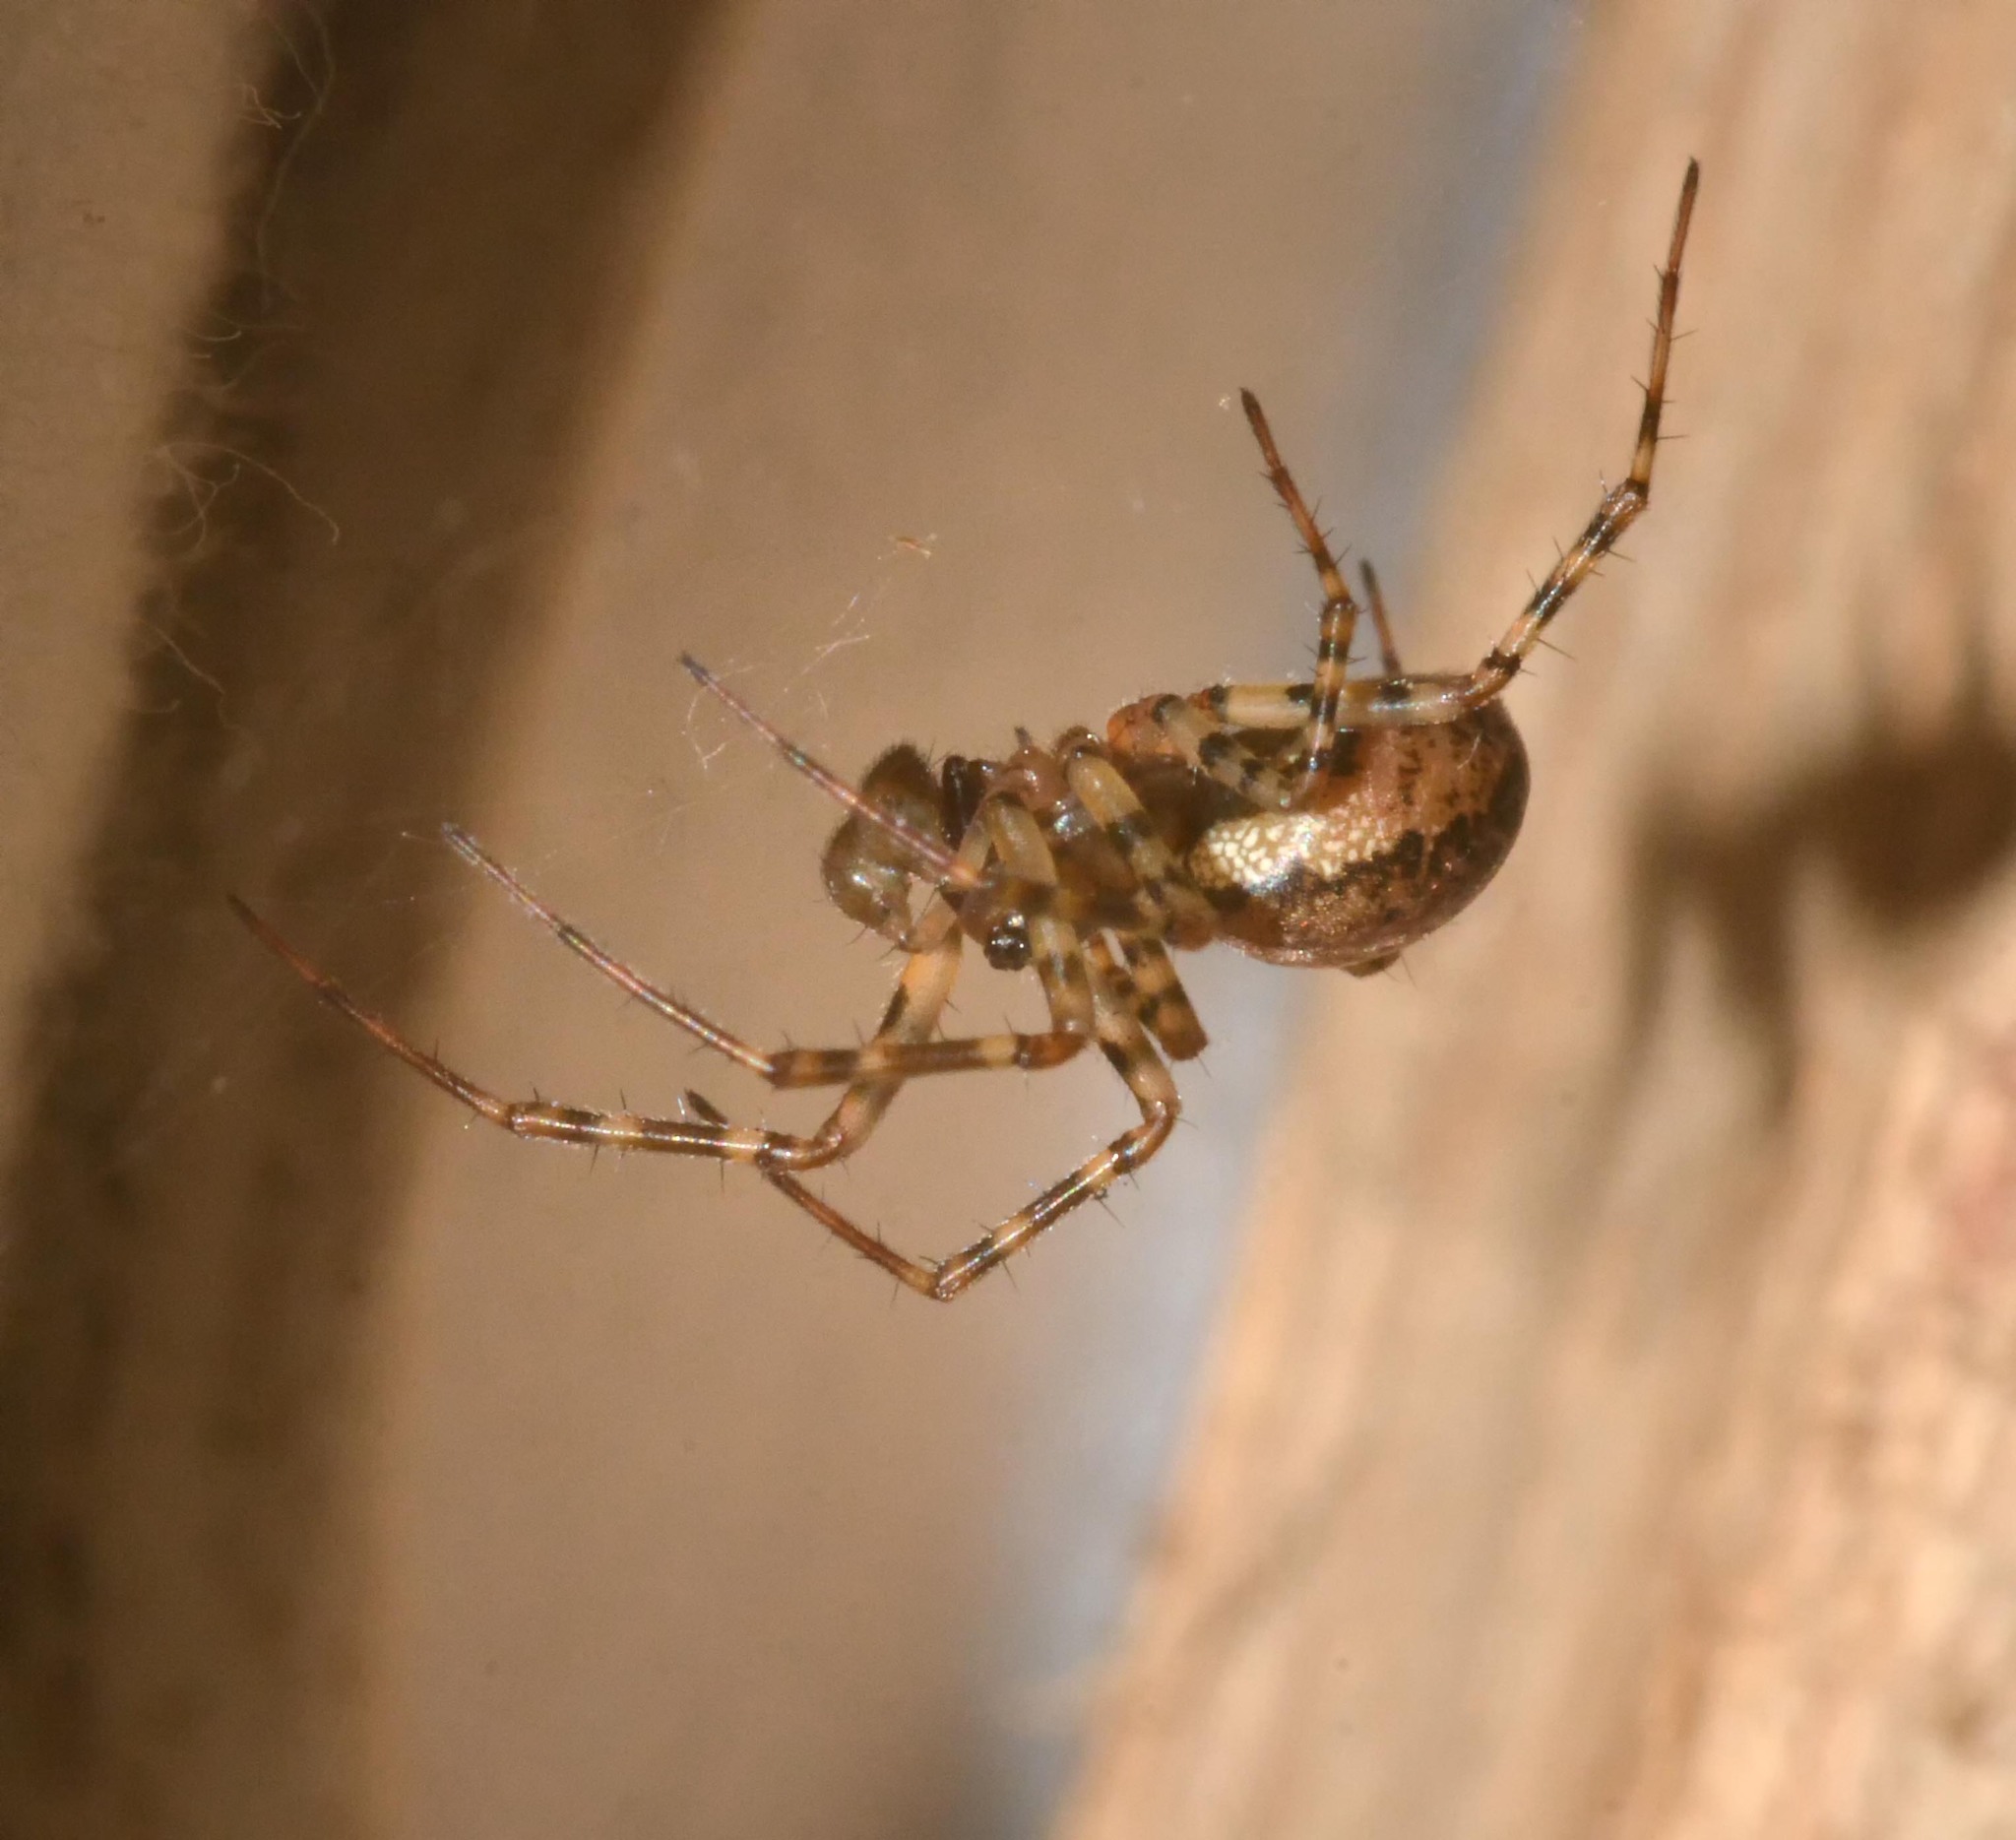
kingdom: Animalia
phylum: Arthropoda
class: Arachnida
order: Araneae
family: Linyphiidae
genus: Neriene
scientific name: Neriene montana
